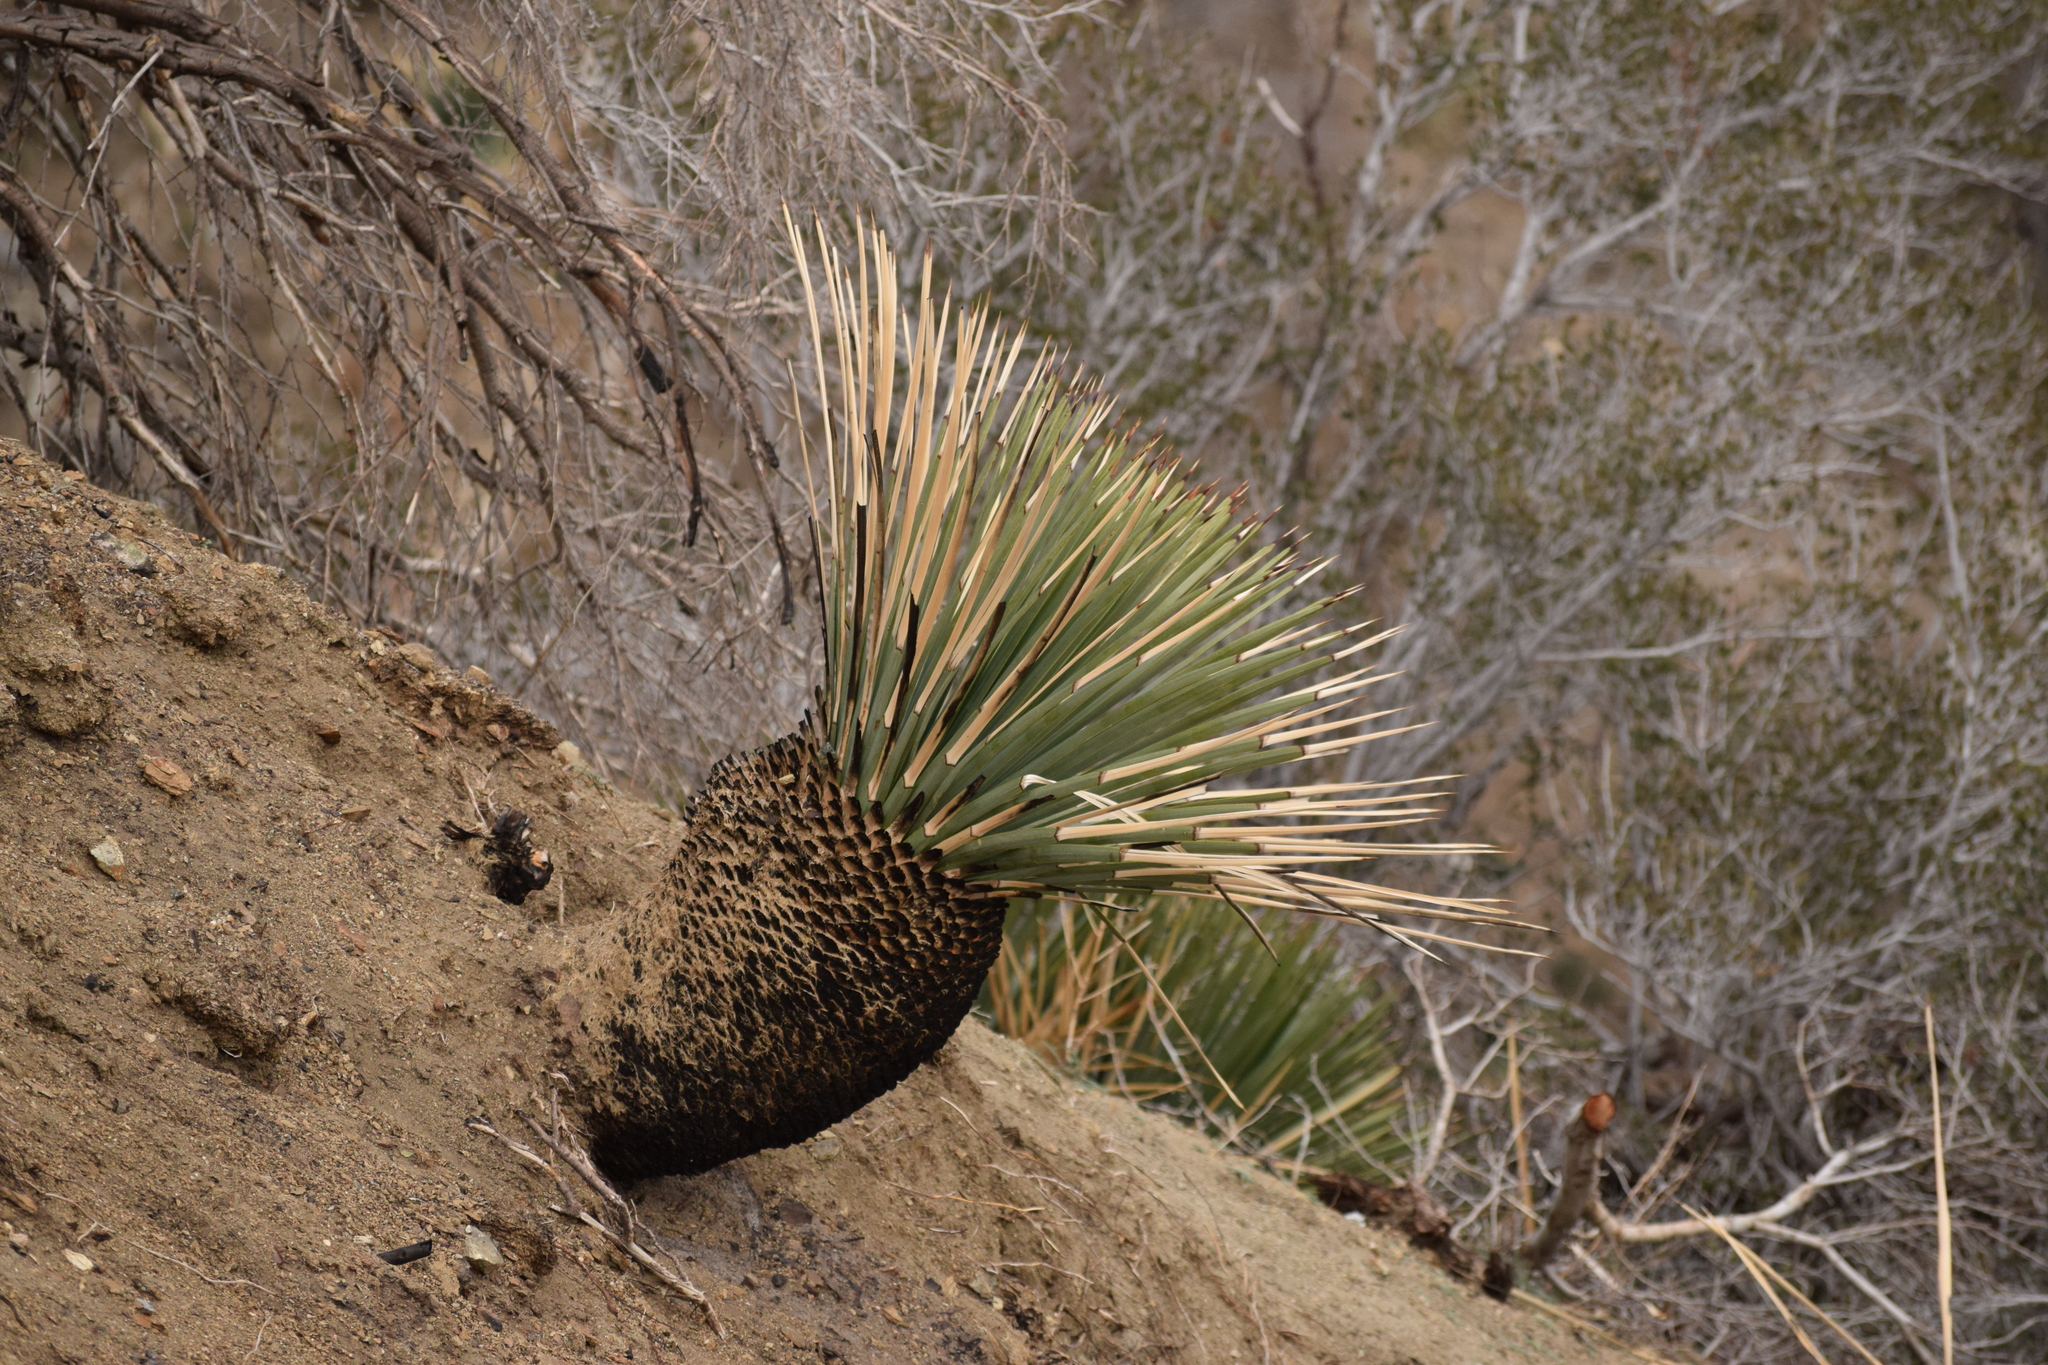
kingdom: Plantae
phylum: Tracheophyta
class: Liliopsida
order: Asparagales
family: Asparagaceae
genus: Hesperoyucca
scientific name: Hesperoyucca whipplei
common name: Our lord's-candle
